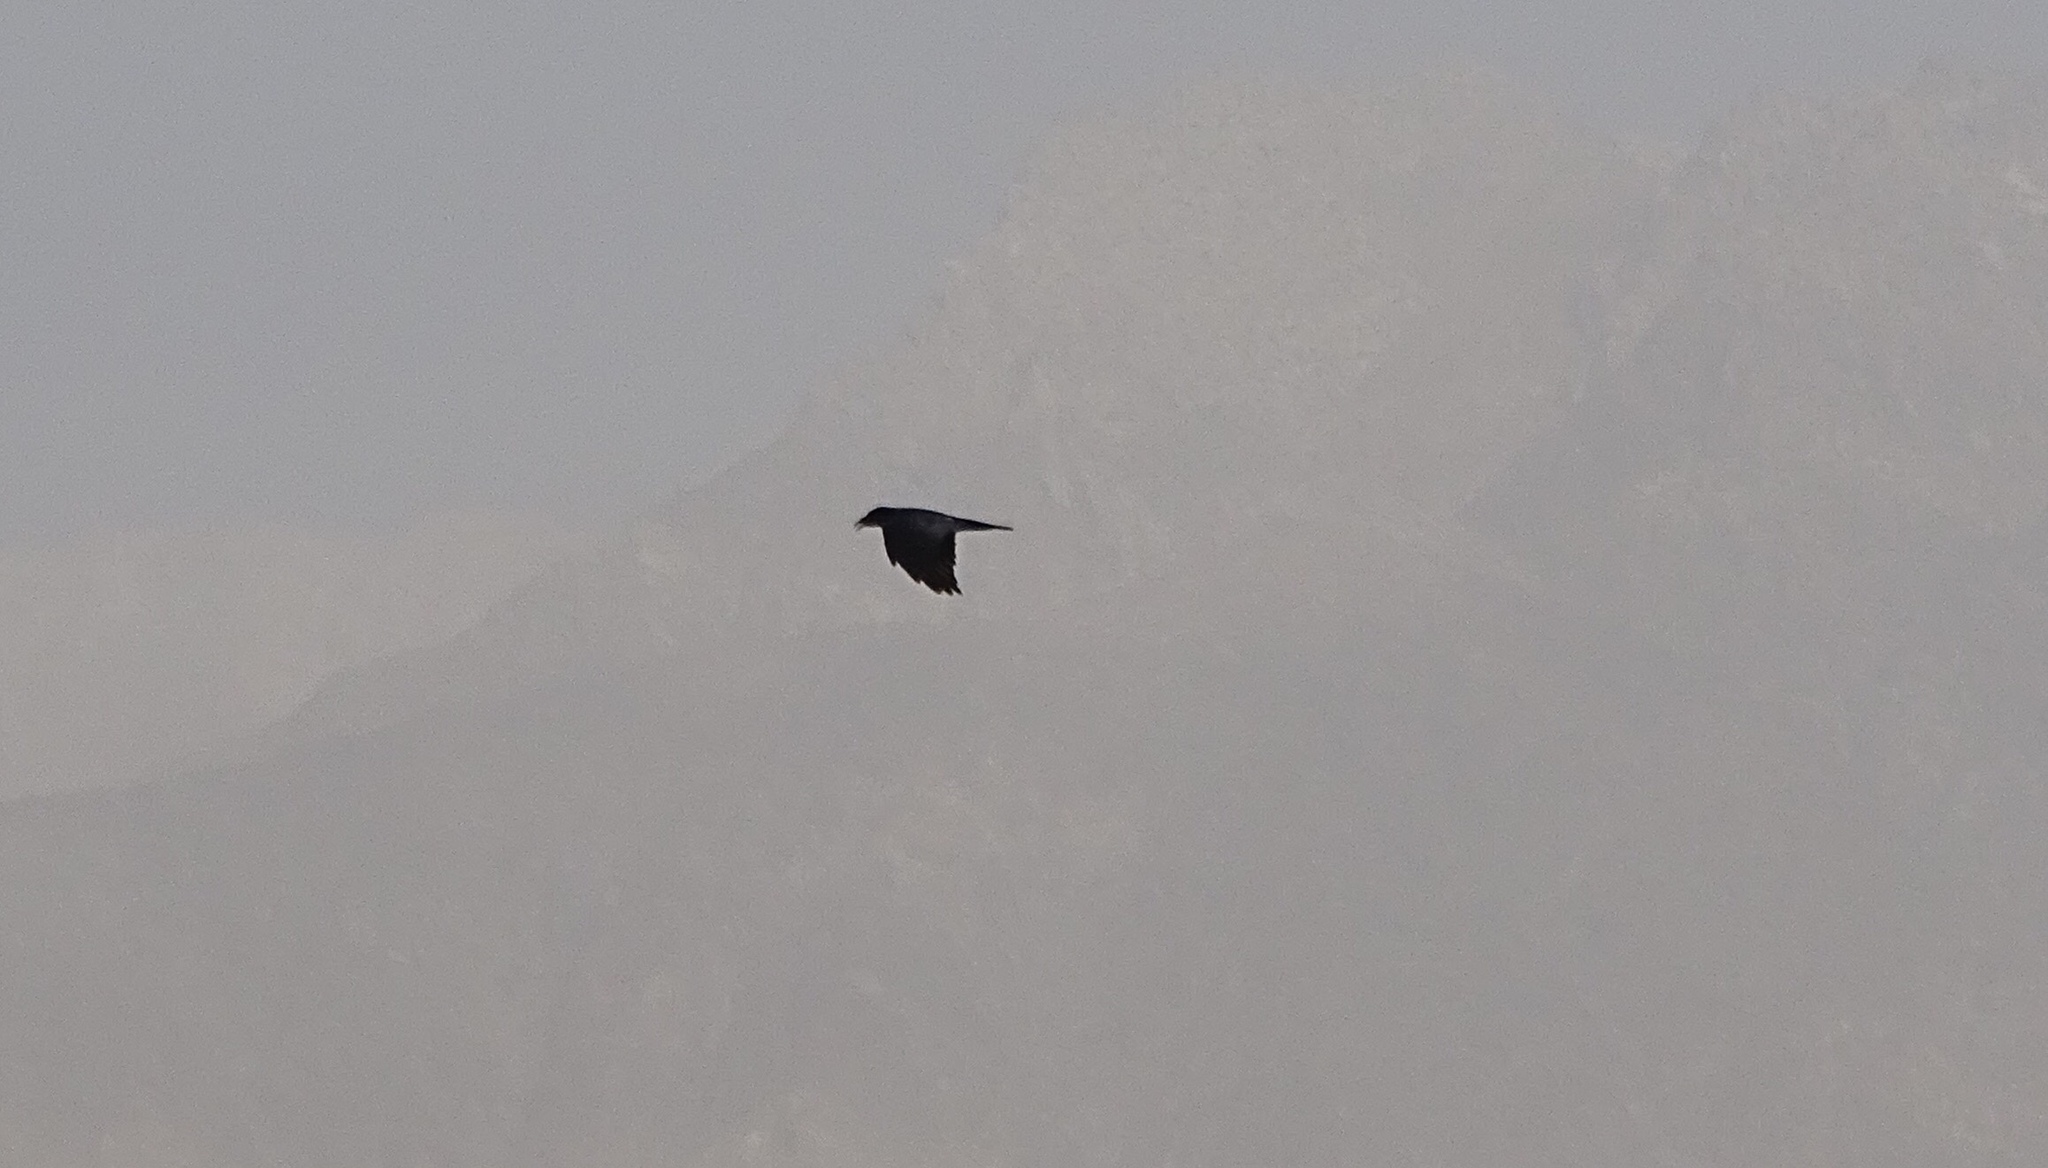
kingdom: Animalia
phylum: Chordata
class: Aves
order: Passeriformes
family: Corvidae
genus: Corvus
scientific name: Corvus corax
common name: Common raven
